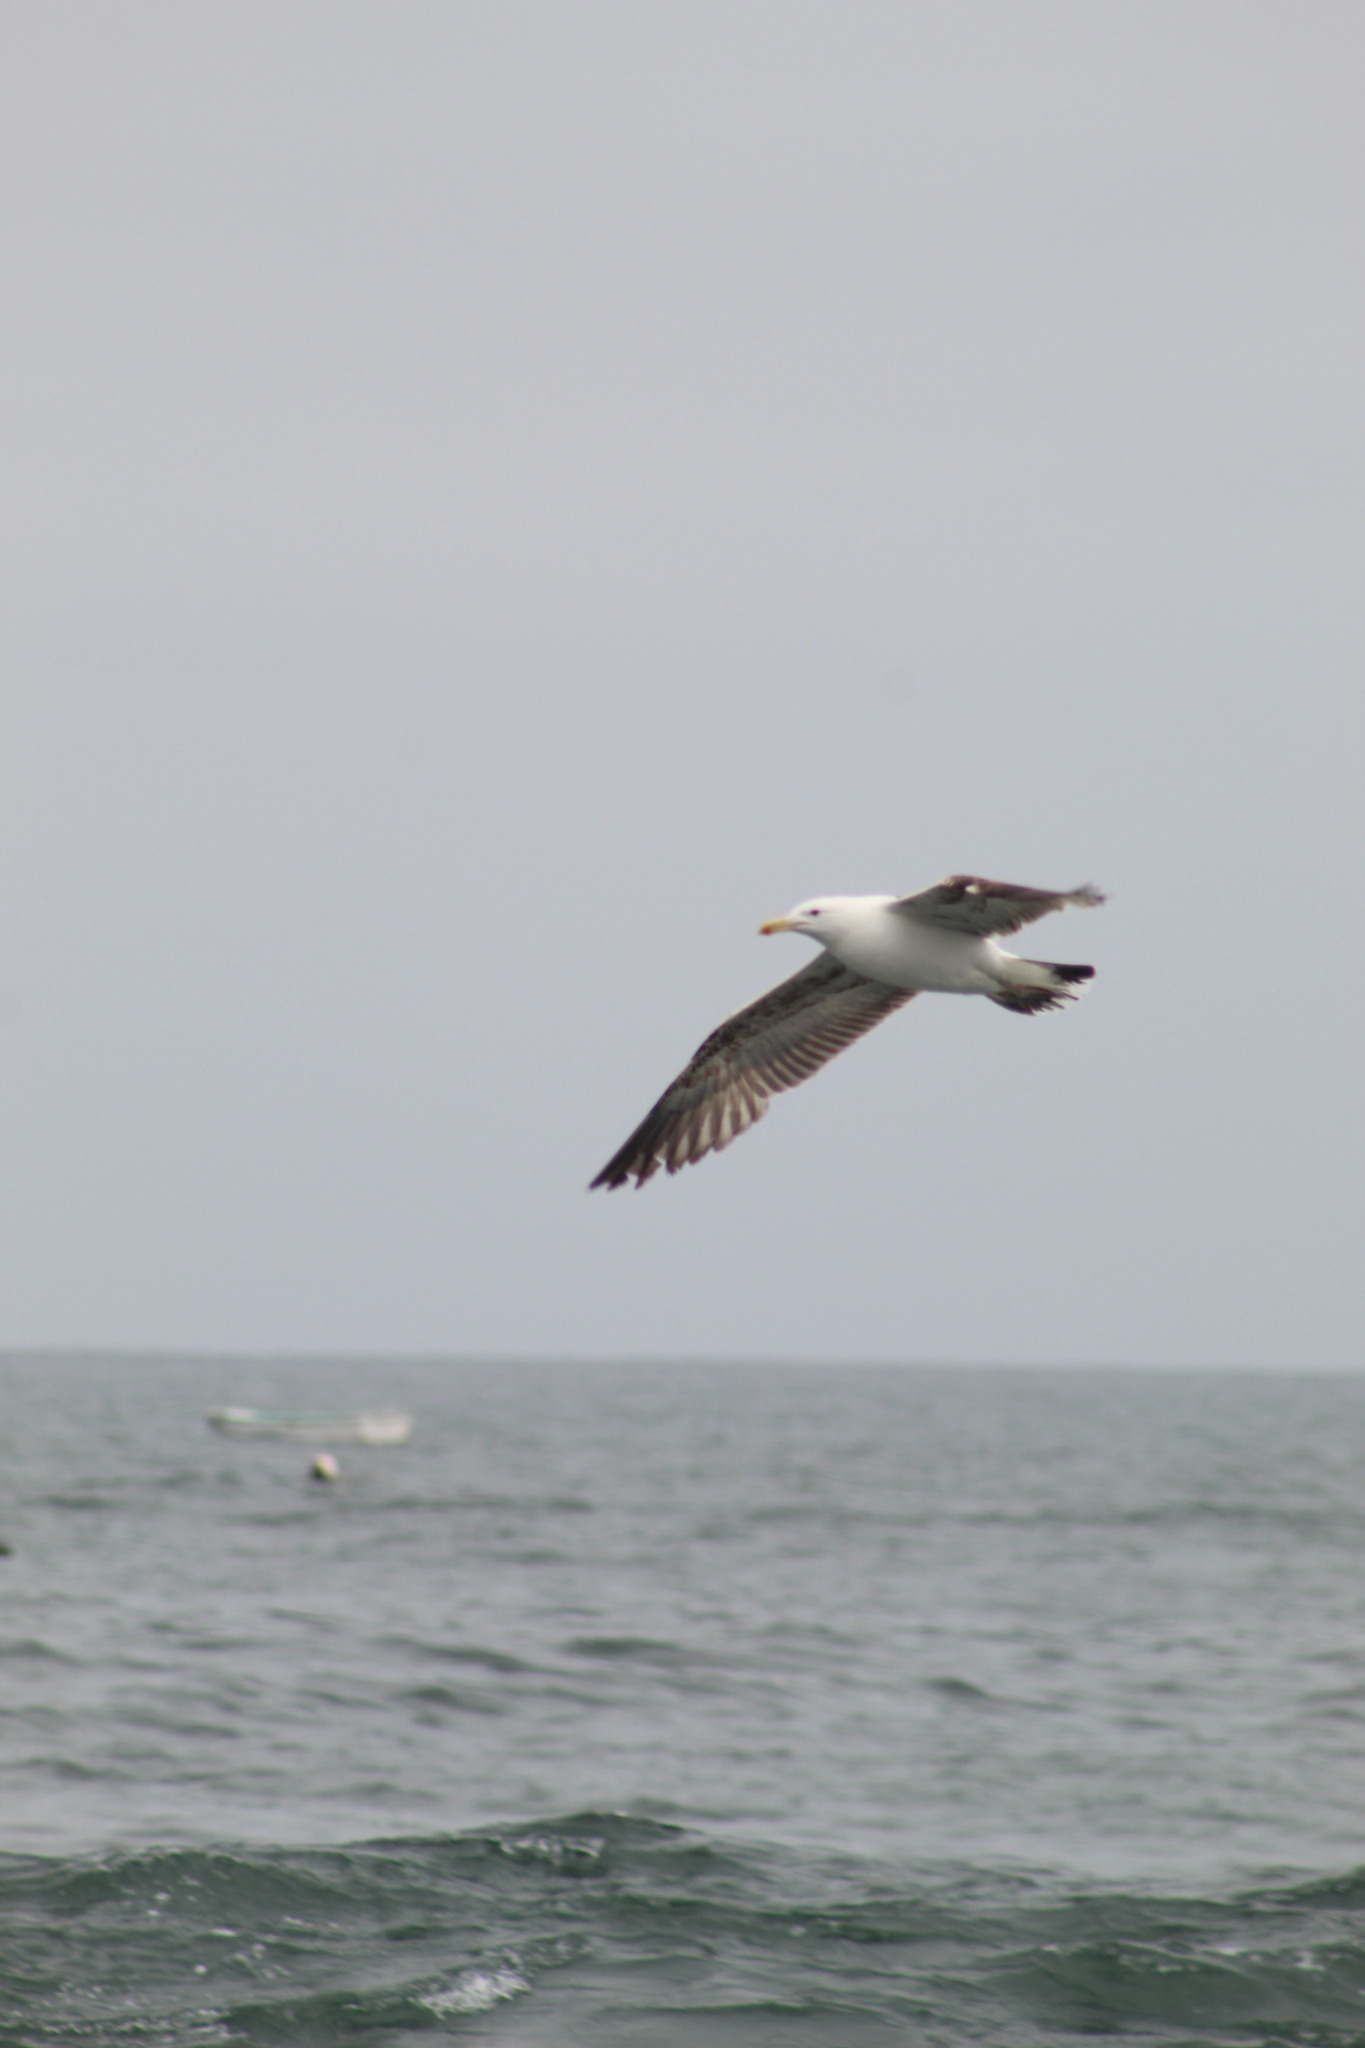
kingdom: Animalia
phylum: Chordata
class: Aves
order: Charadriiformes
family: Laridae
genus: Larus
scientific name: Larus dominicanus
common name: Kelp gull
